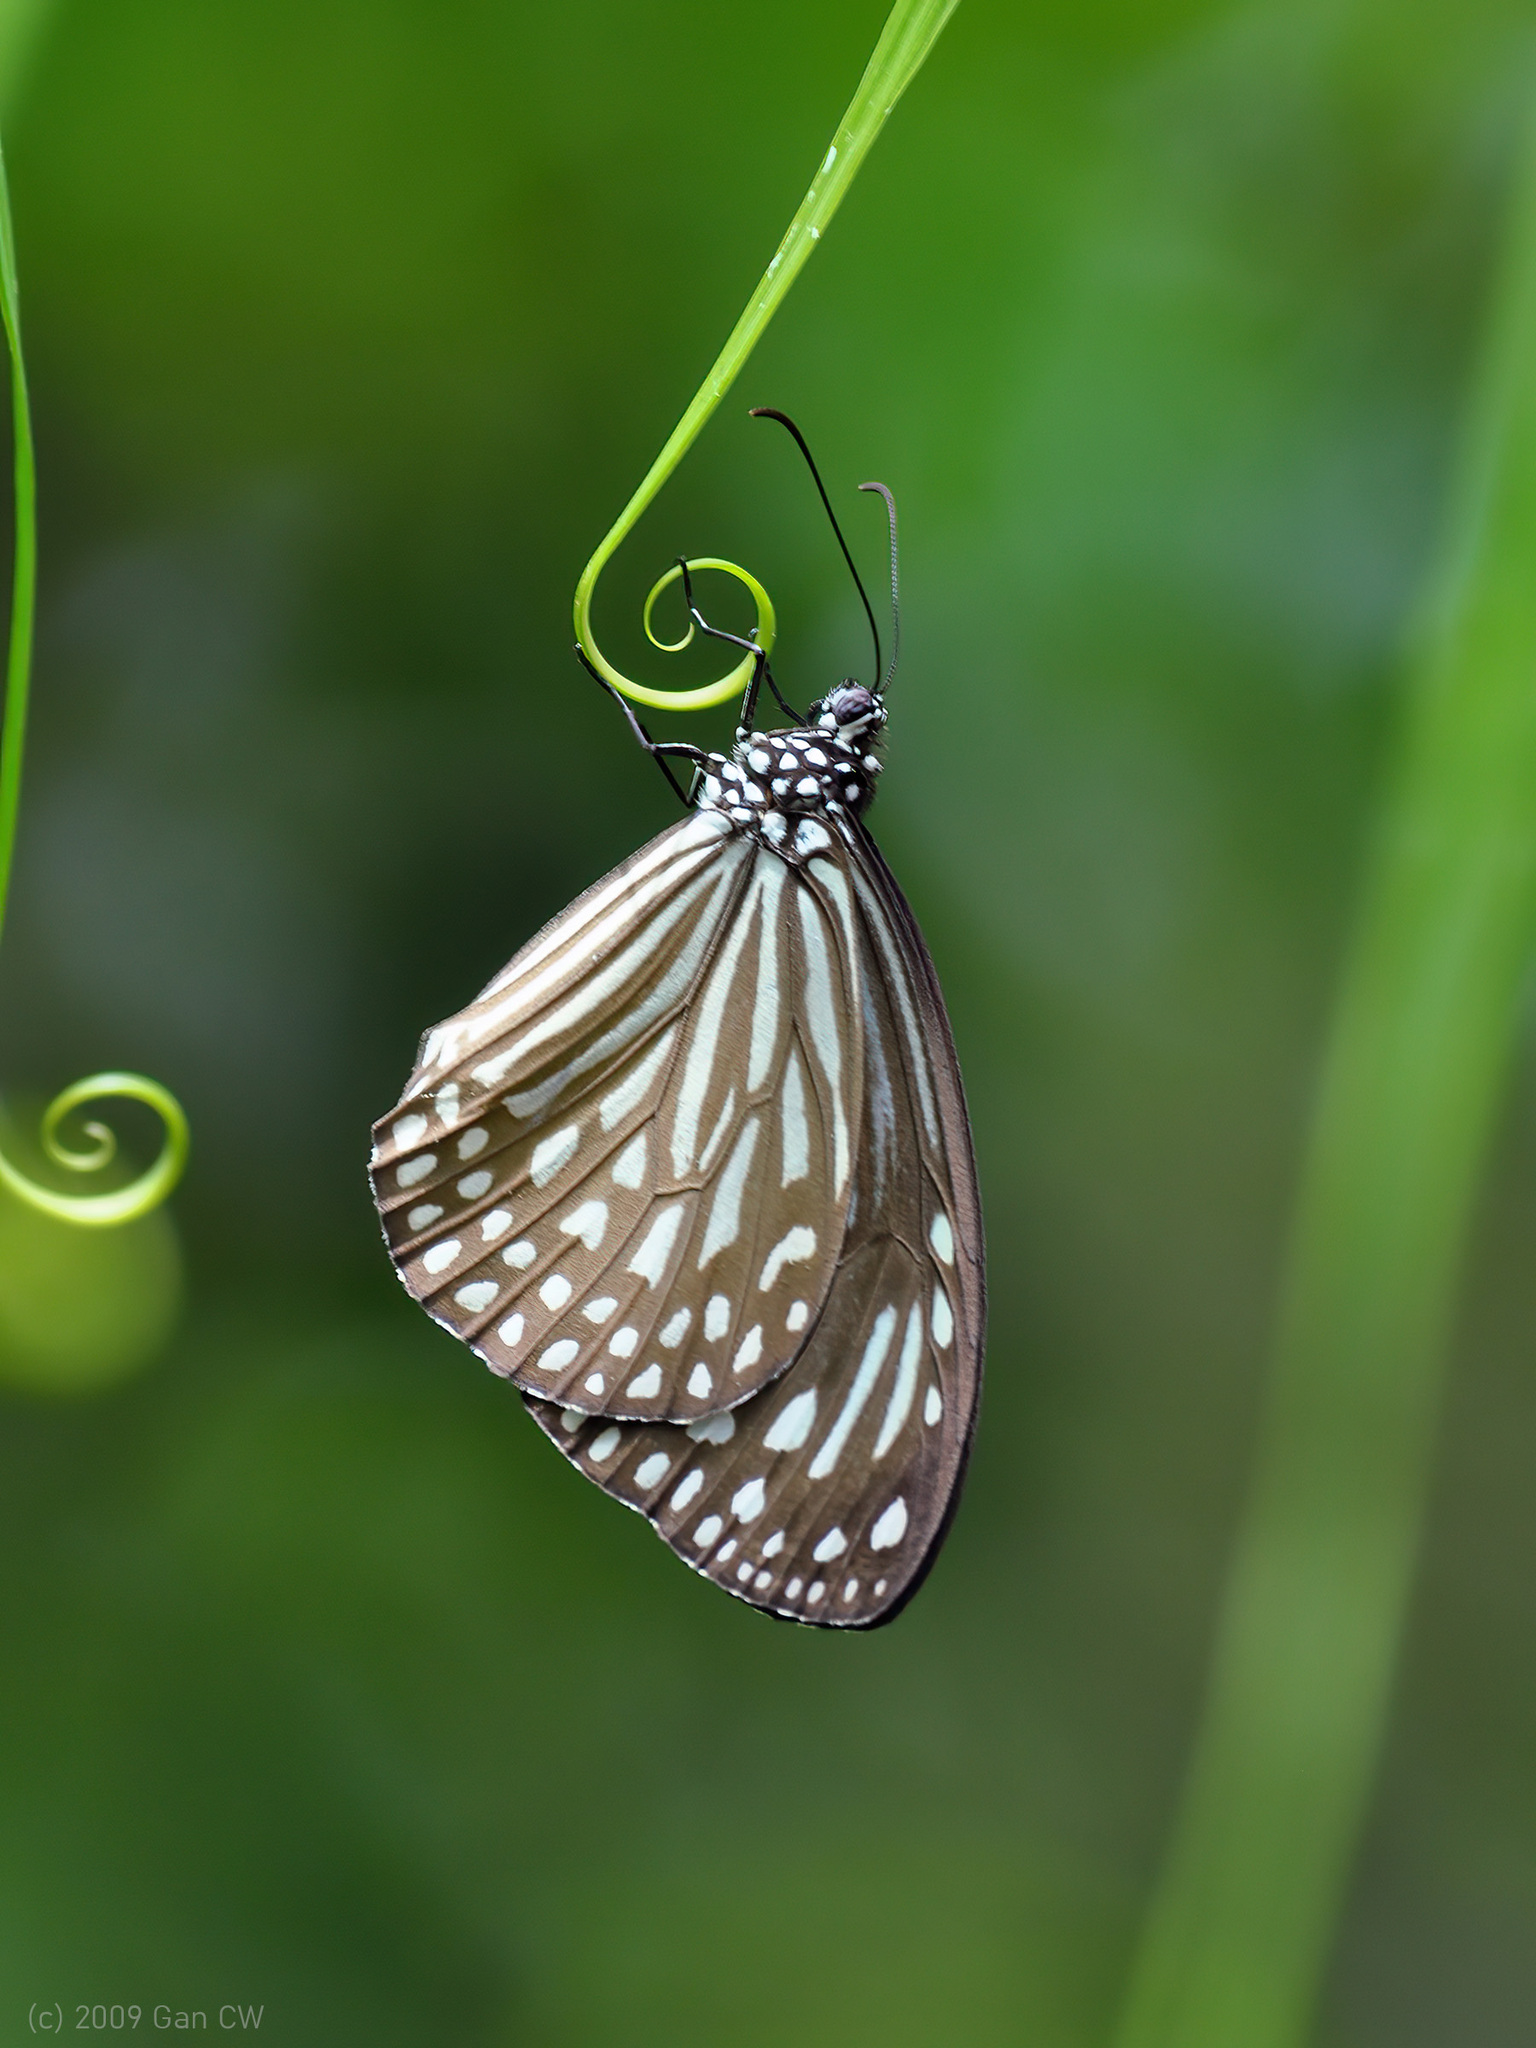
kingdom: Animalia
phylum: Arthropoda
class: Insecta
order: Lepidoptera
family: Nymphalidae
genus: Parantica
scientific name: Parantica agleoides
